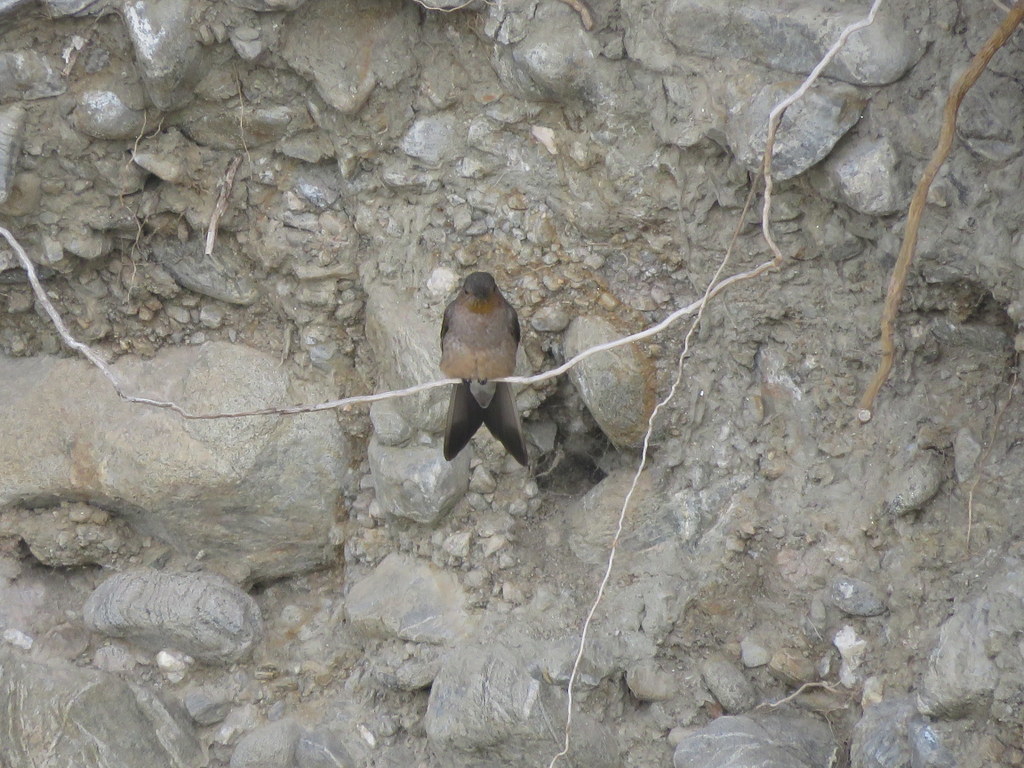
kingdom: Animalia
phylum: Chordata
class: Aves
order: Apodiformes
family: Trochilidae
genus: Patagona
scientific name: Patagona gigas
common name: Giant hummingbird
